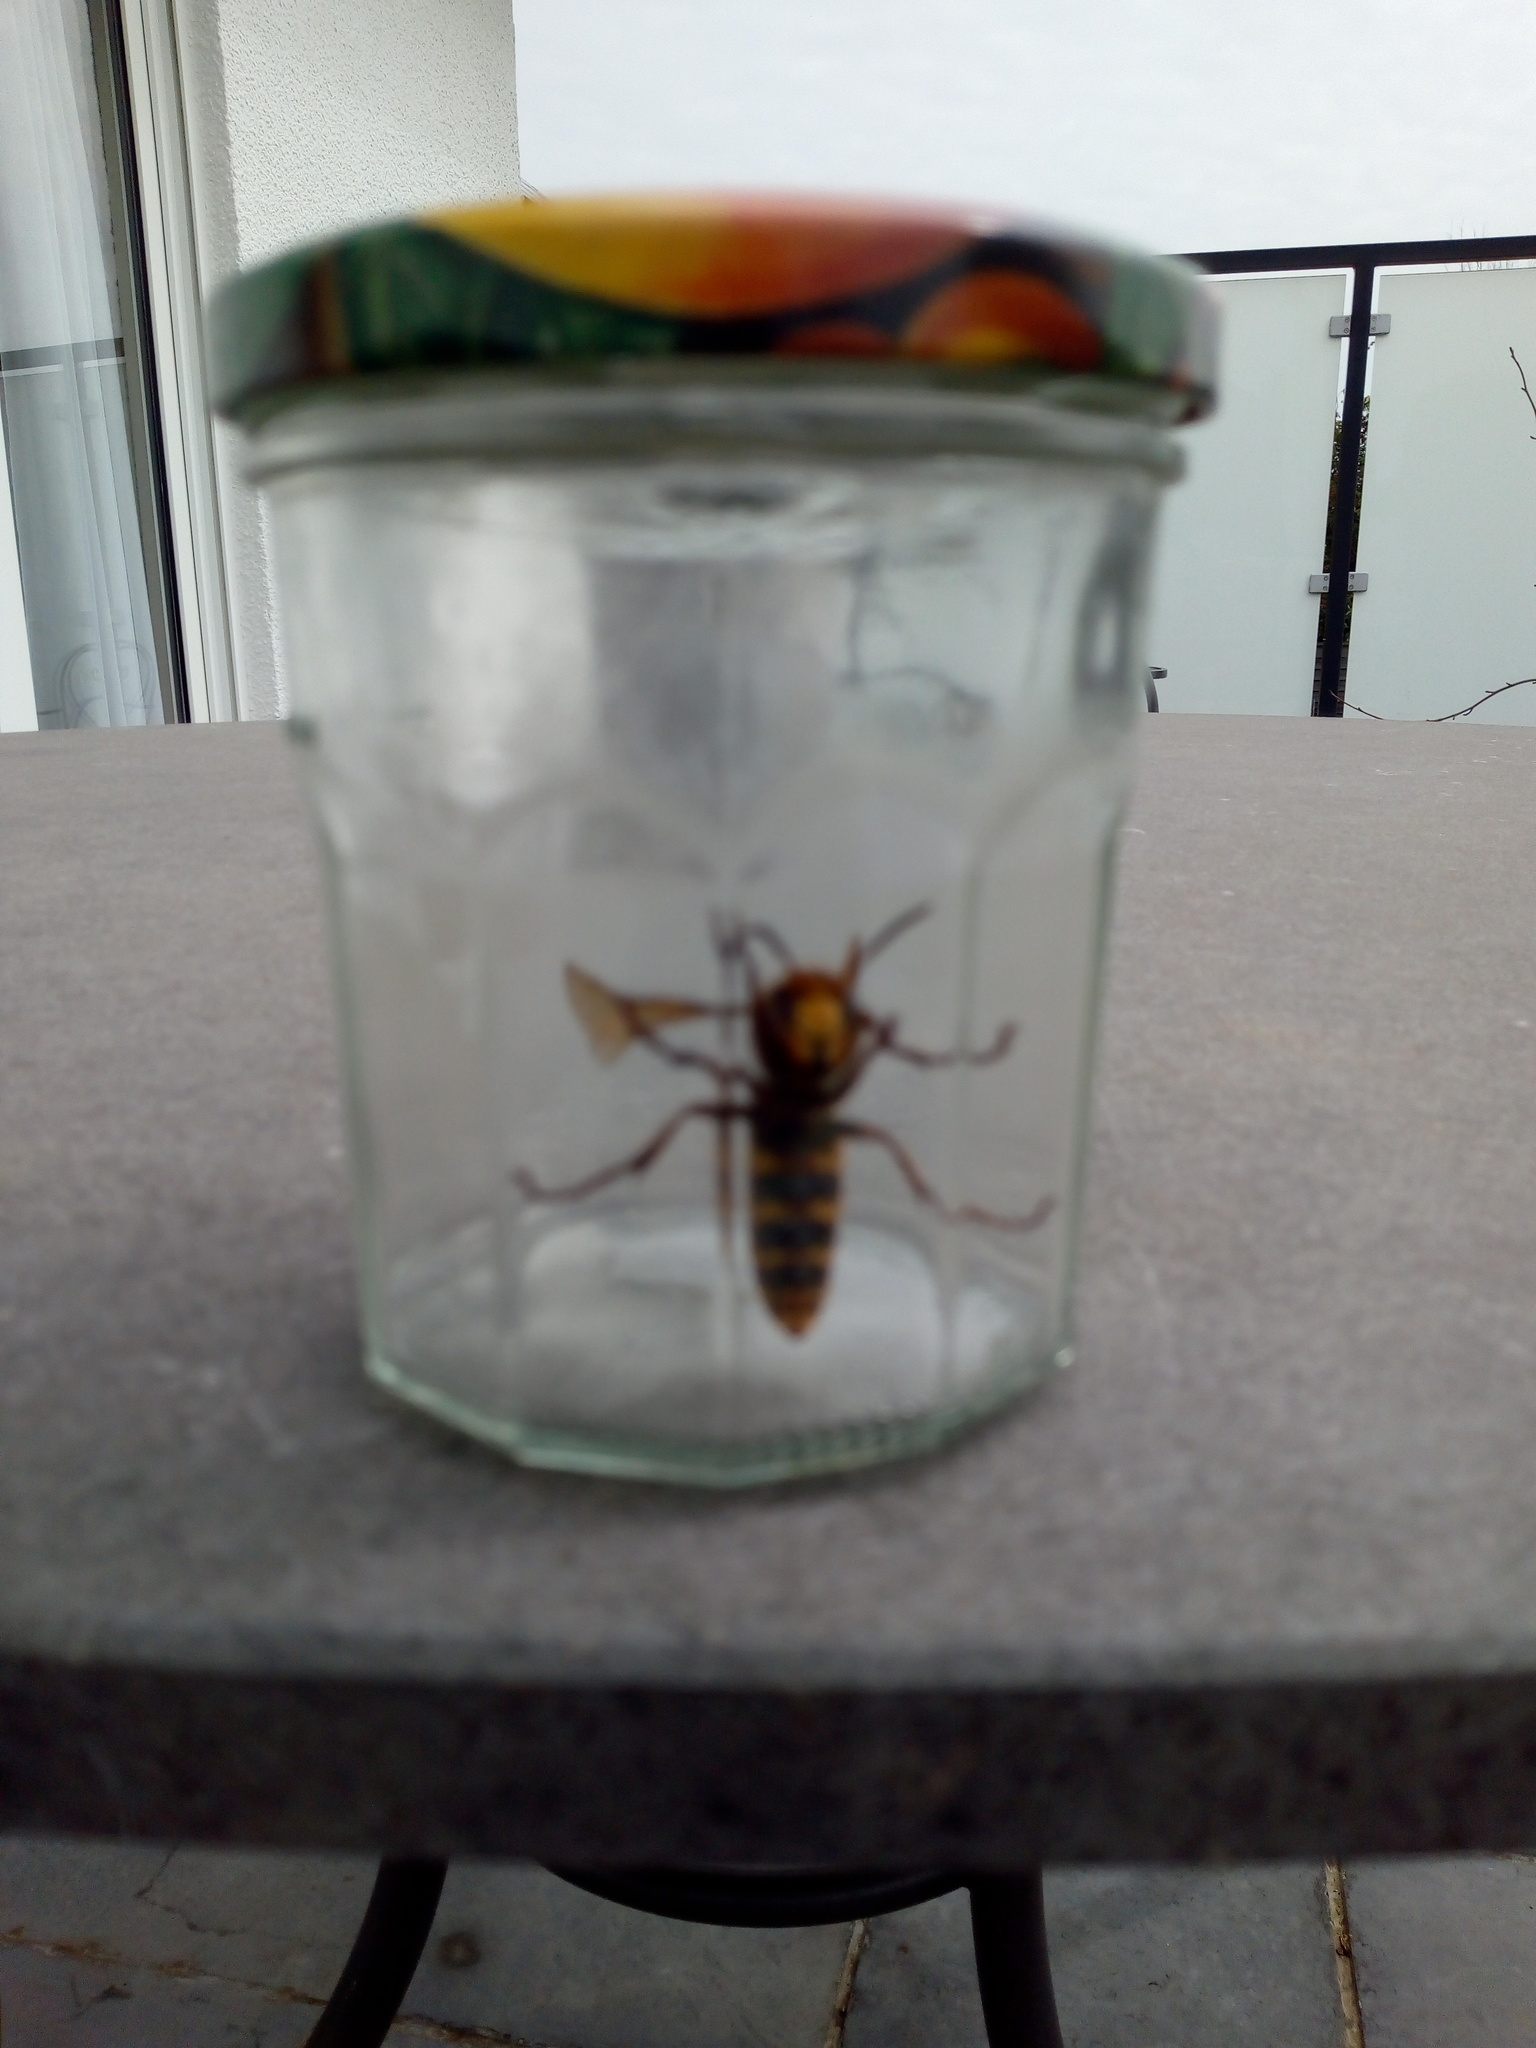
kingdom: Animalia
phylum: Arthropoda
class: Insecta
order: Hymenoptera
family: Vespidae
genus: Vespa
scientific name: Vespa crabro
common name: Hornet
